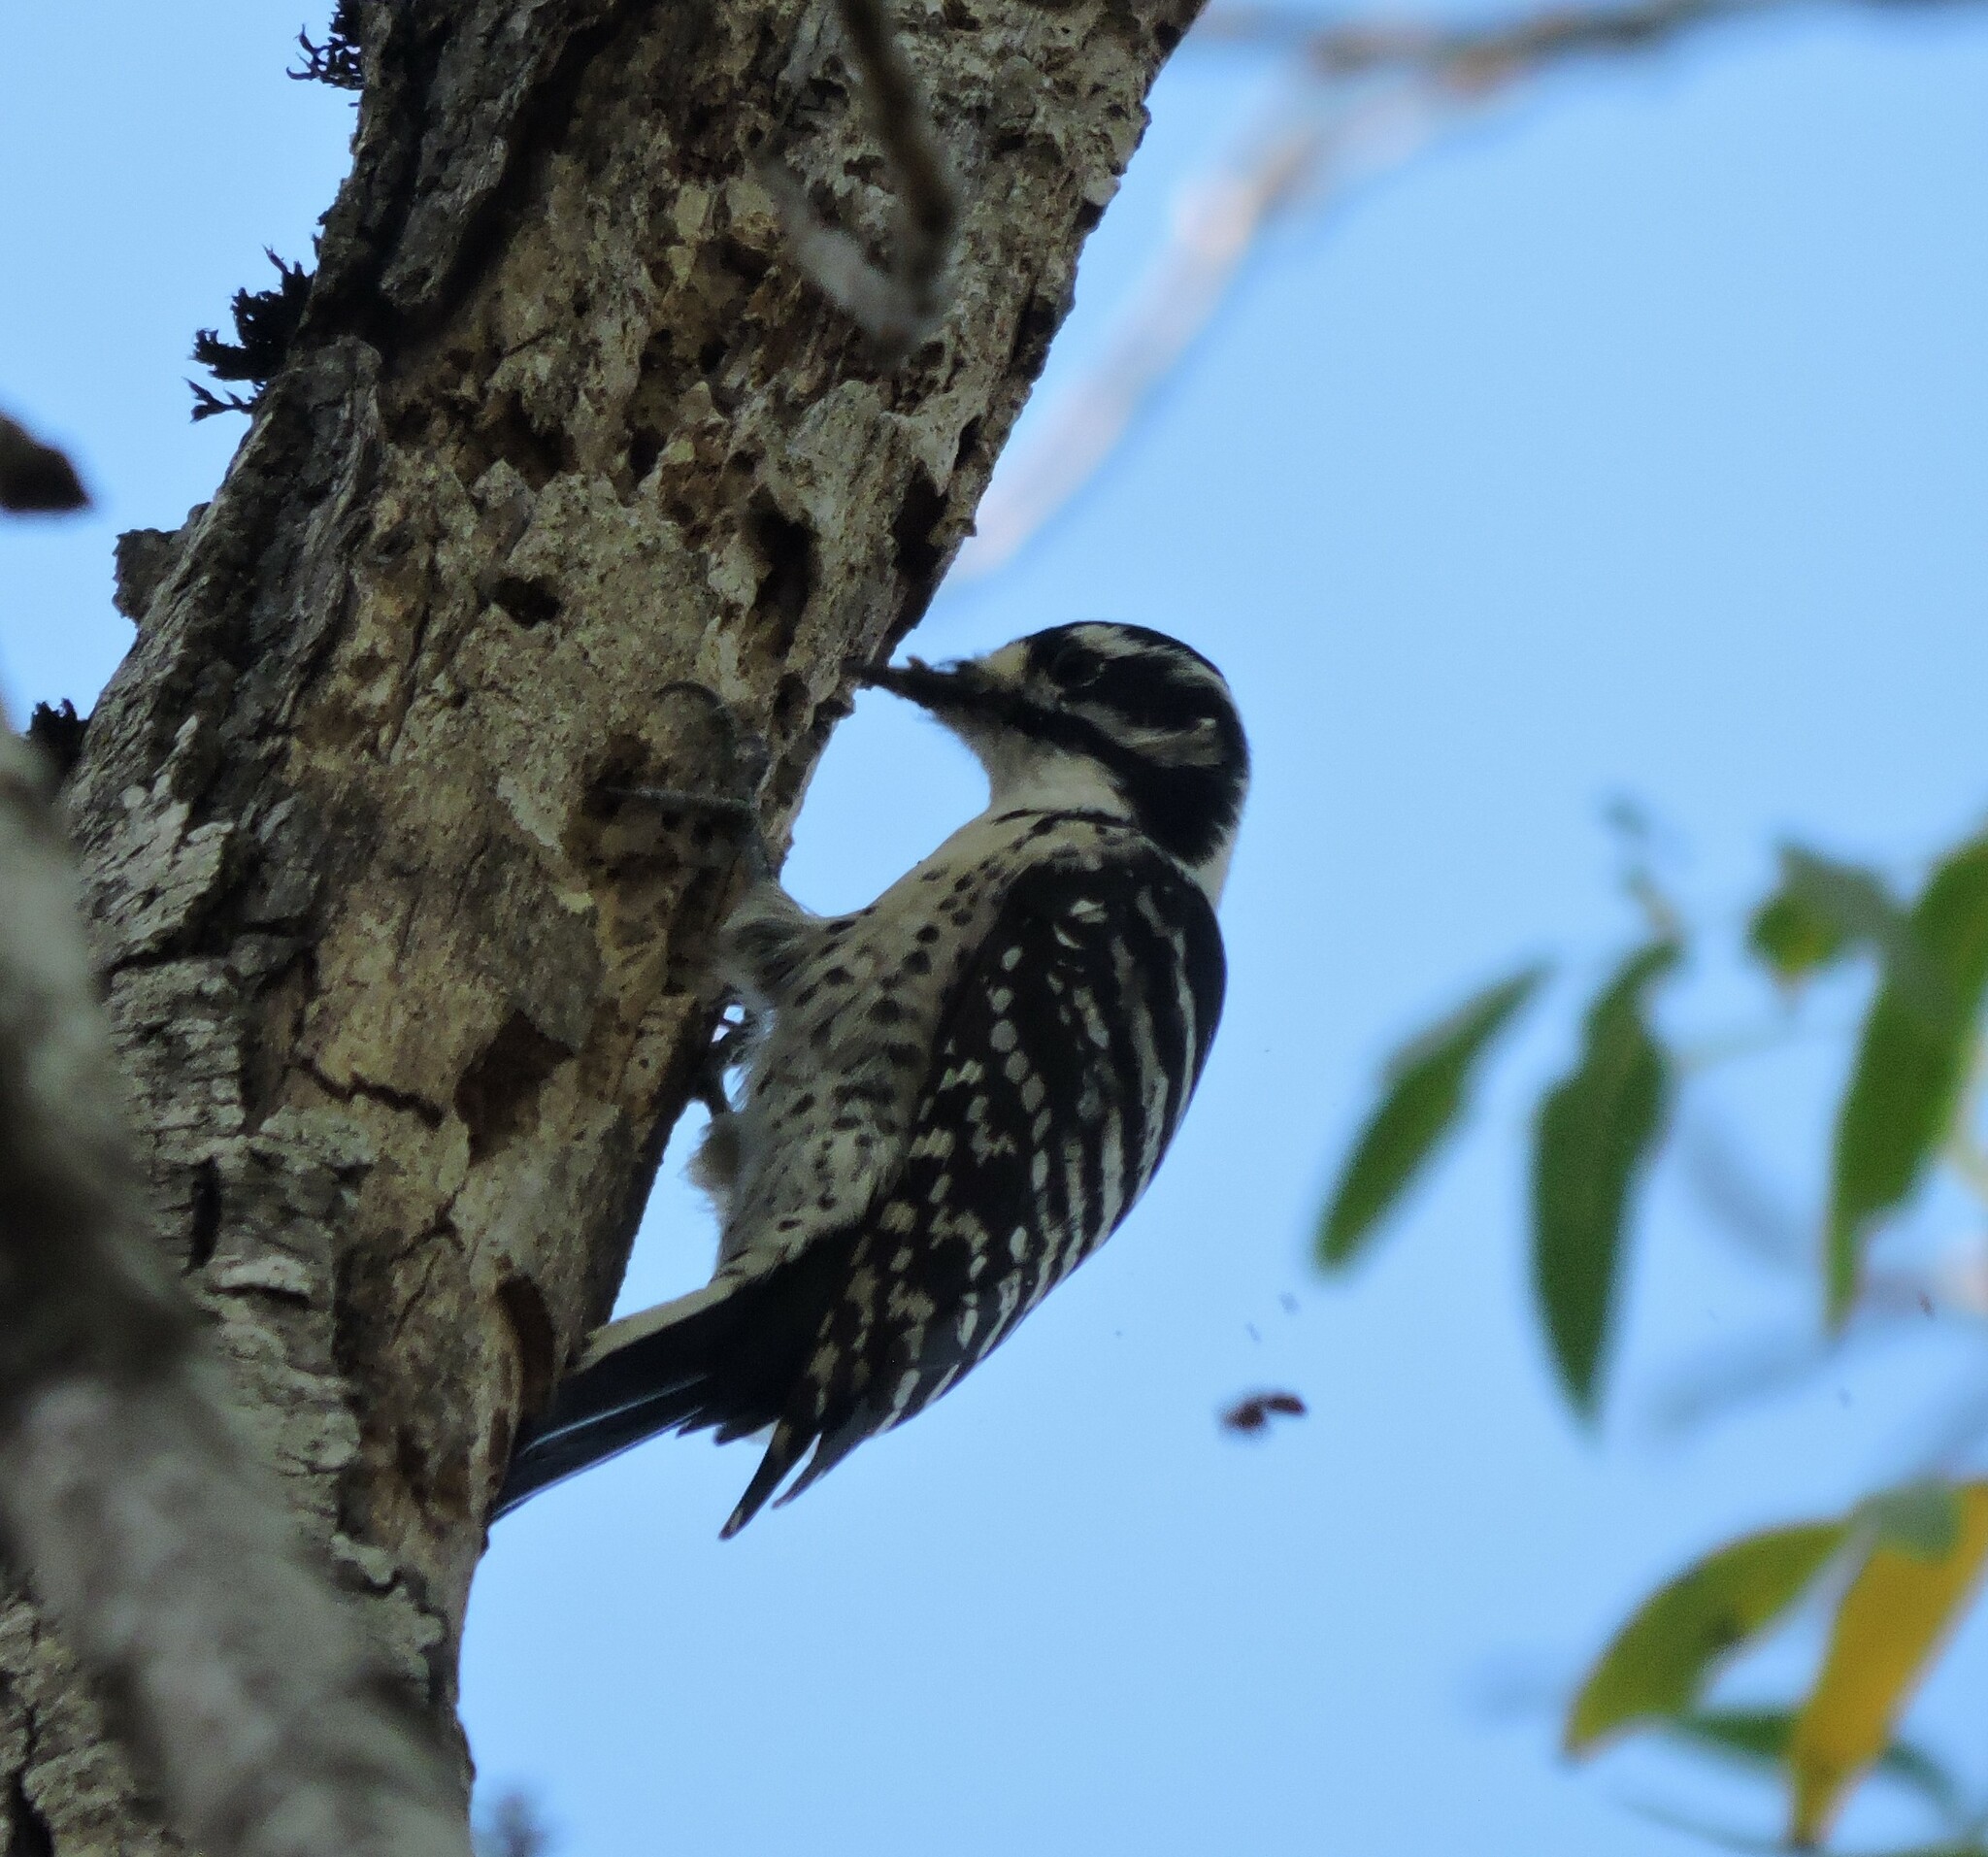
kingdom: Animalia
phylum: Chordata
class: Aves
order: Piciformes
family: Picidae
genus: Dryobates
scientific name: Dryobates nuttallii
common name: Nuttall's woodpecker
